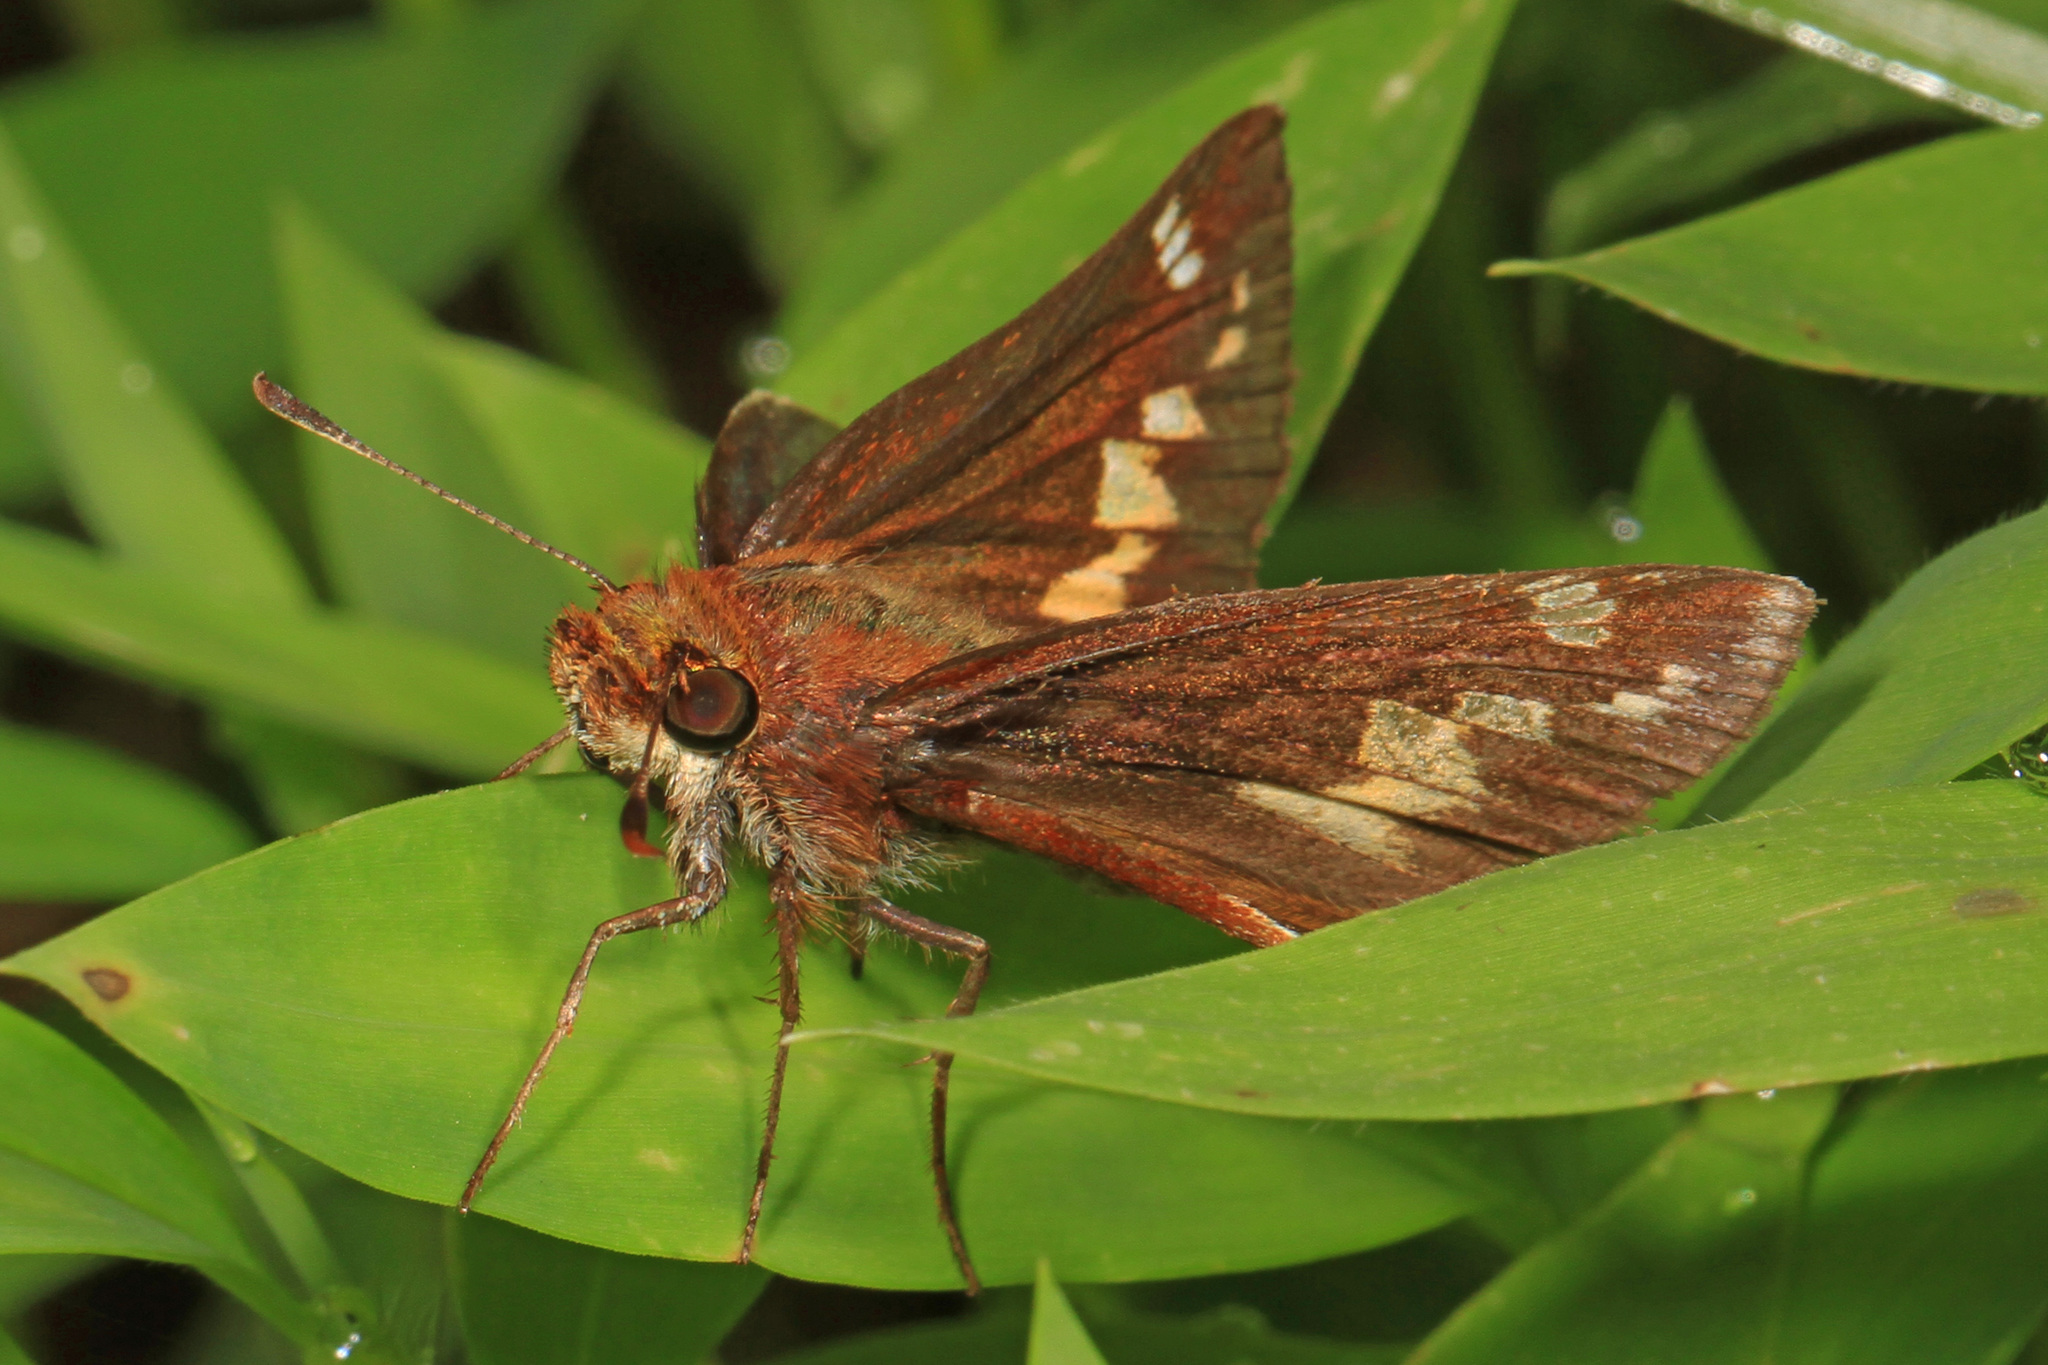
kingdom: Animalia
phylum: Arthropoda
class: Insecta
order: Lepidoptera
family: Hesperiidae
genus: Lon
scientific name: Lon zabulon
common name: Zabulon skipper
